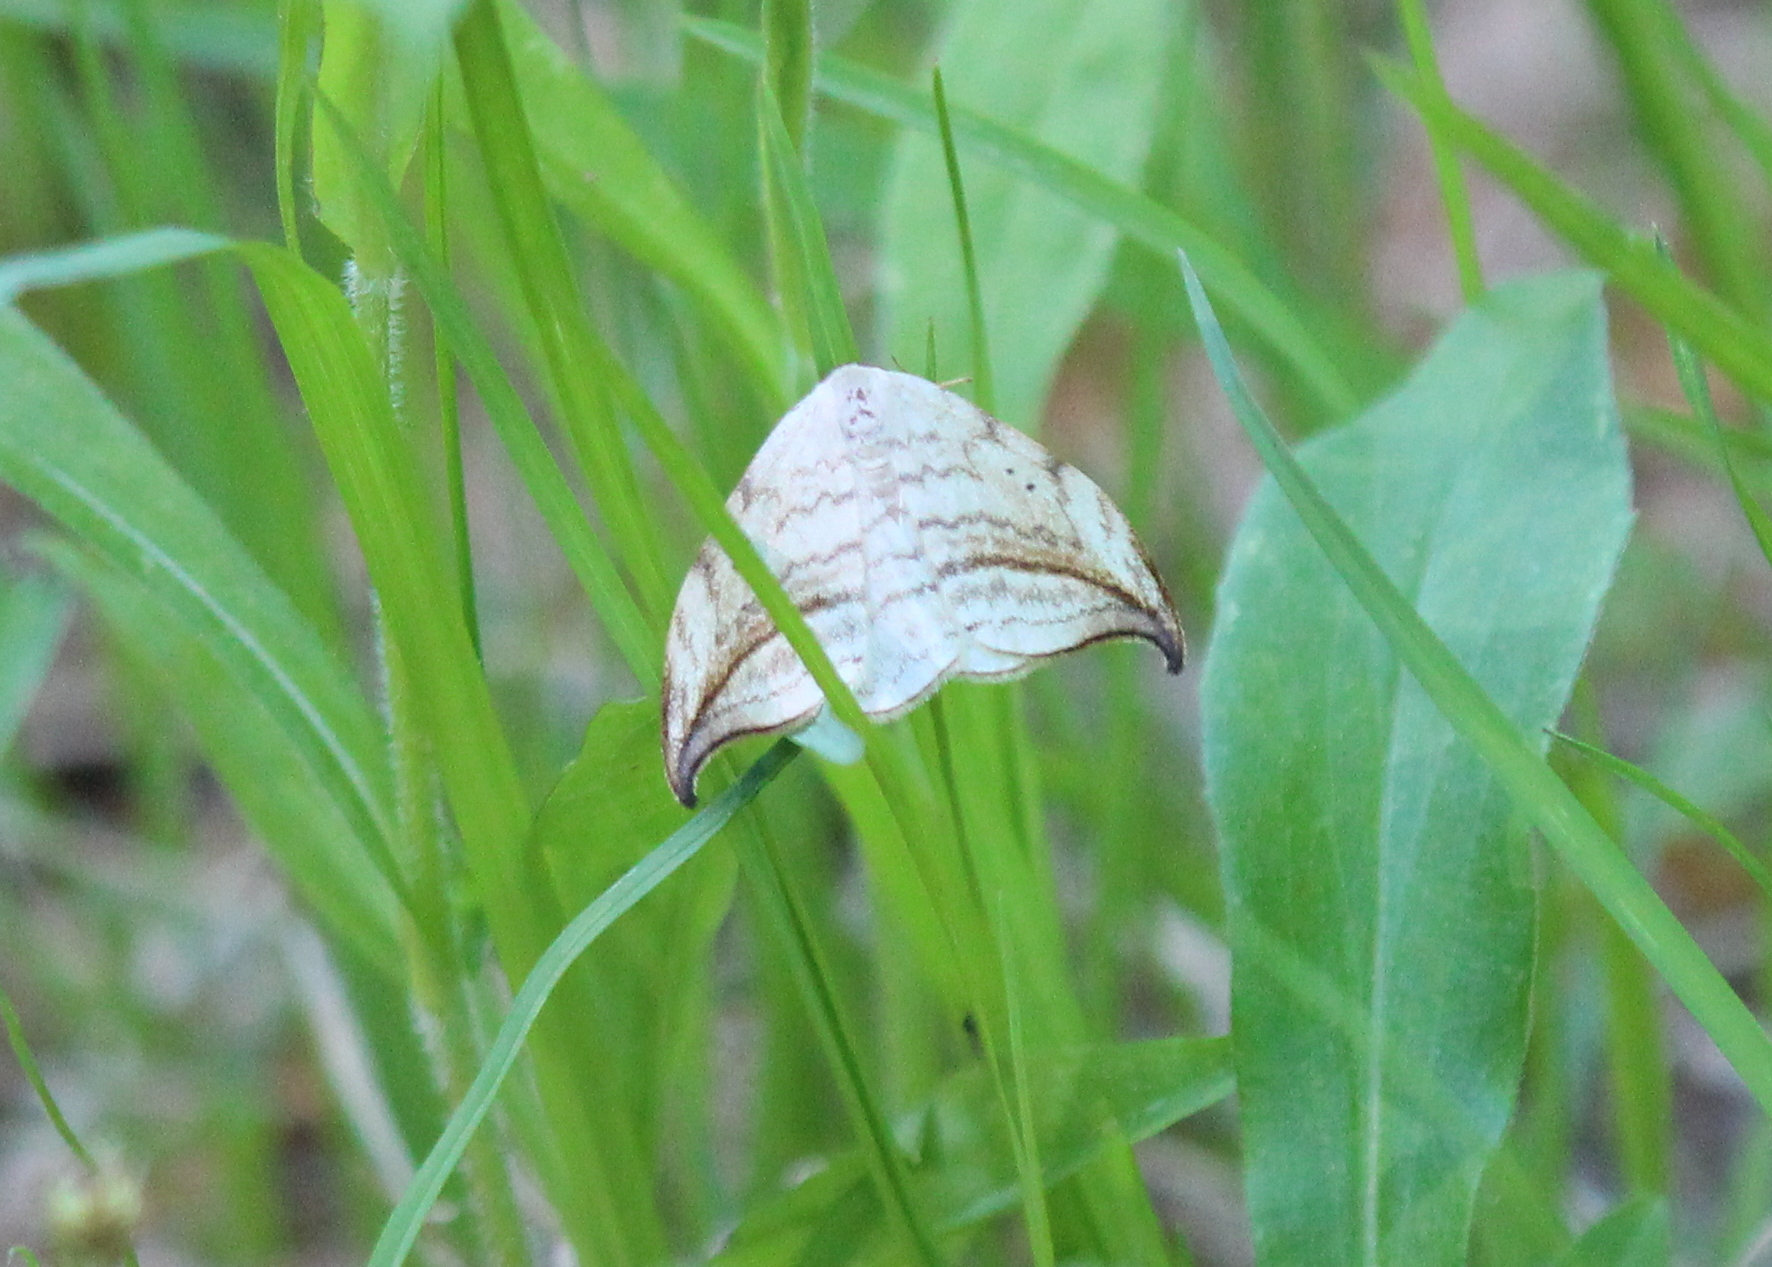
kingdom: Animalia
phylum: Arthropoda
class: Insecta
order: Lepidoptera
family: Drepanidae
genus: Drepana
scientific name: Drepana arcuata
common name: Arched hooktip moth
